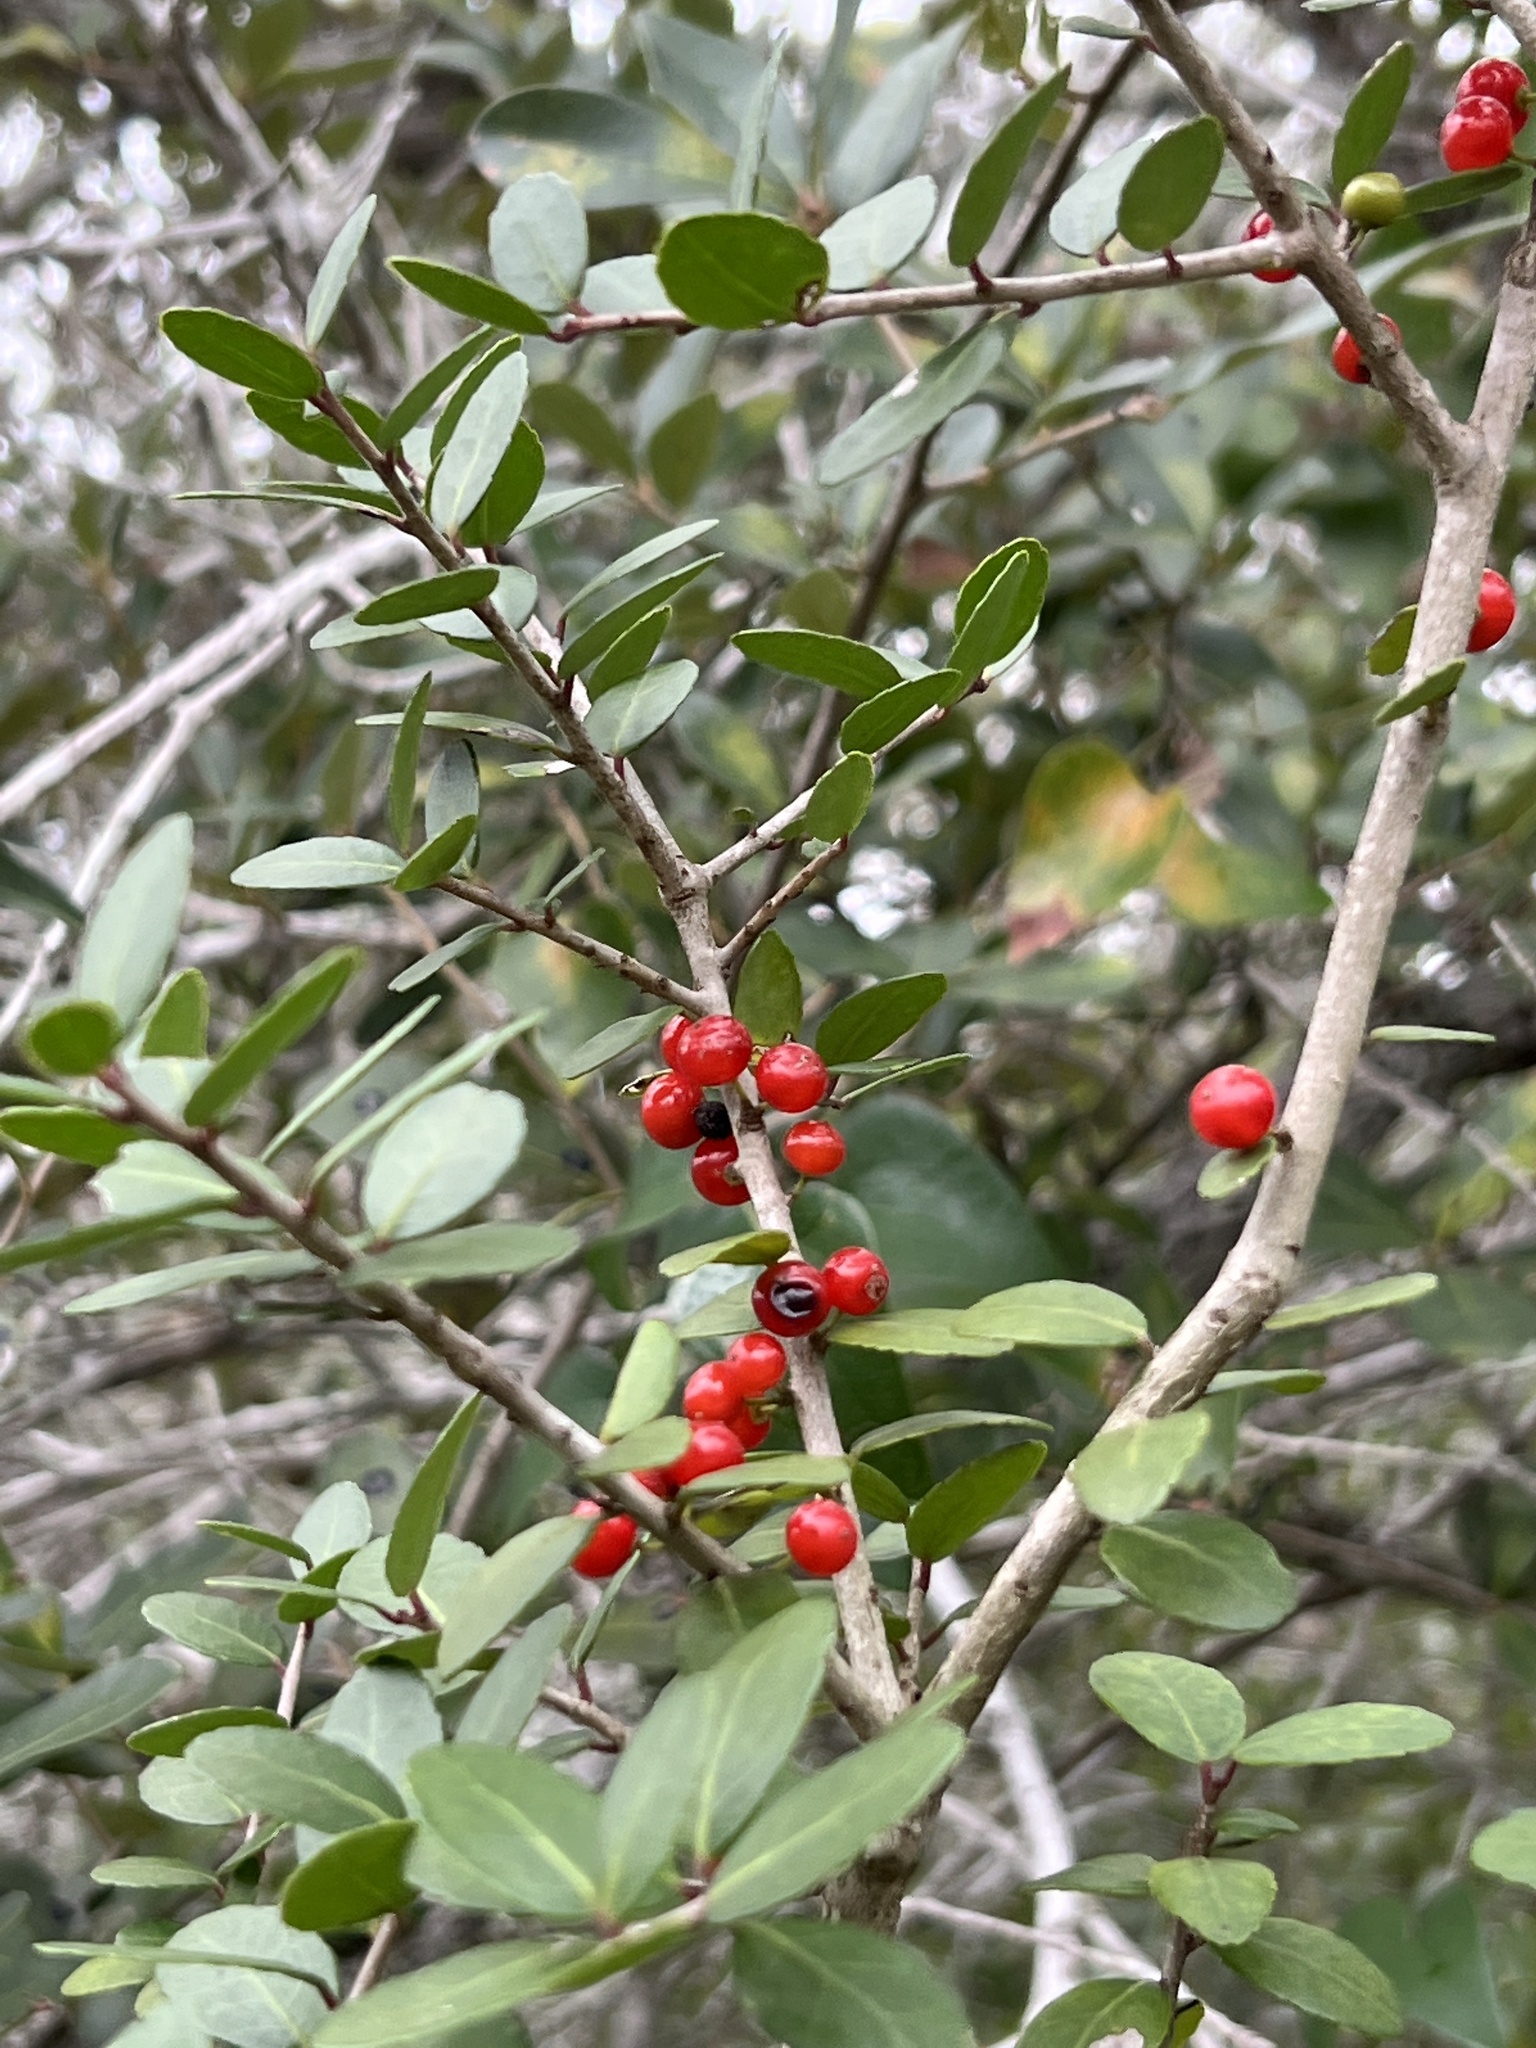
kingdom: Plantae
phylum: Tracheophyta
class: Magnoliopsida
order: Aquifoliales
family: Aquifoliaceae
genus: Ilex
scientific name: Ilex vomitoria
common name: Yaupon holly
